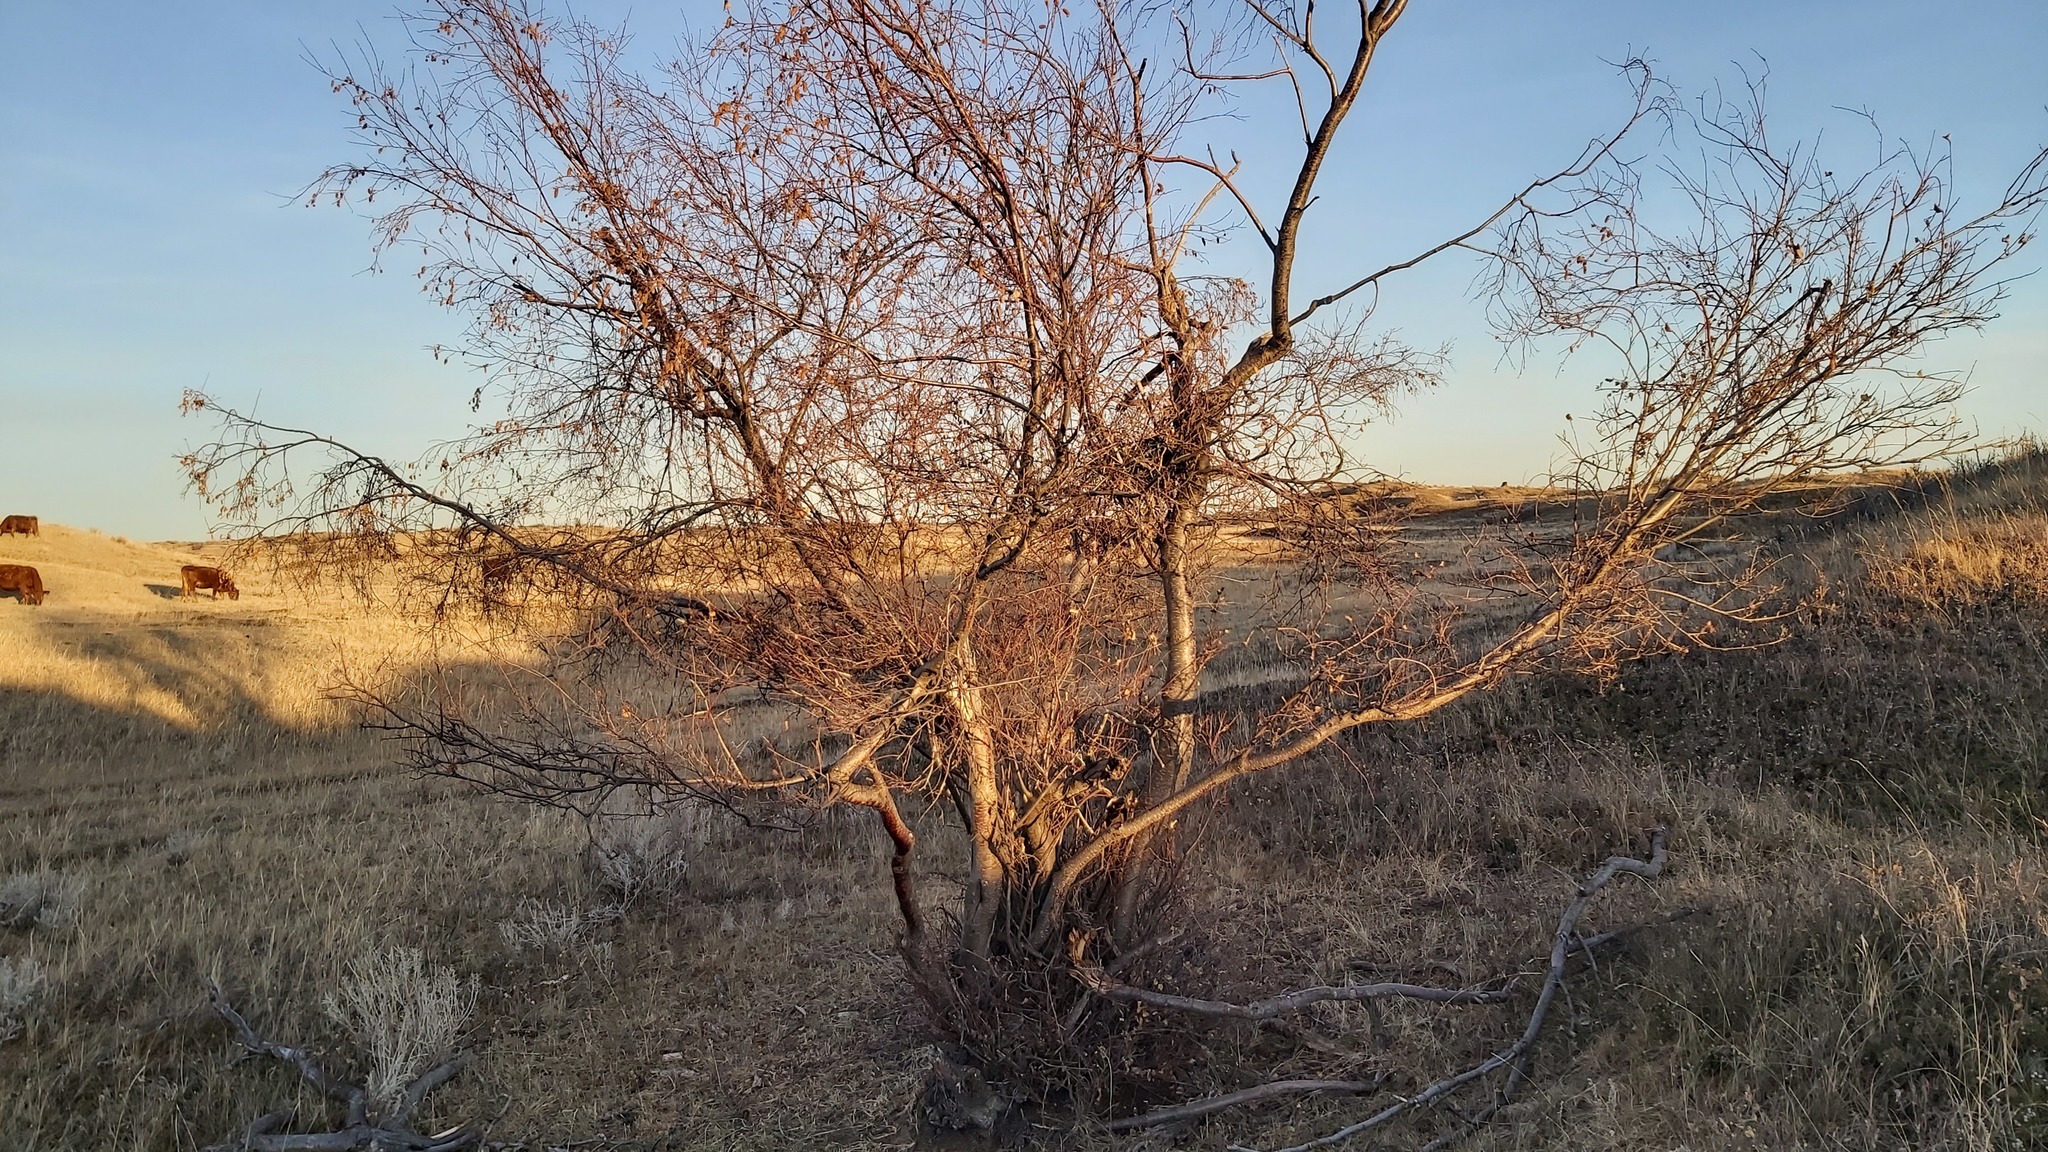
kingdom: Plantae
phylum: Tracheophyta
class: Magnoliopsida
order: Fagales
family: Betulaceae
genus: Betula
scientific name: Betula occidentalis
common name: River birch
